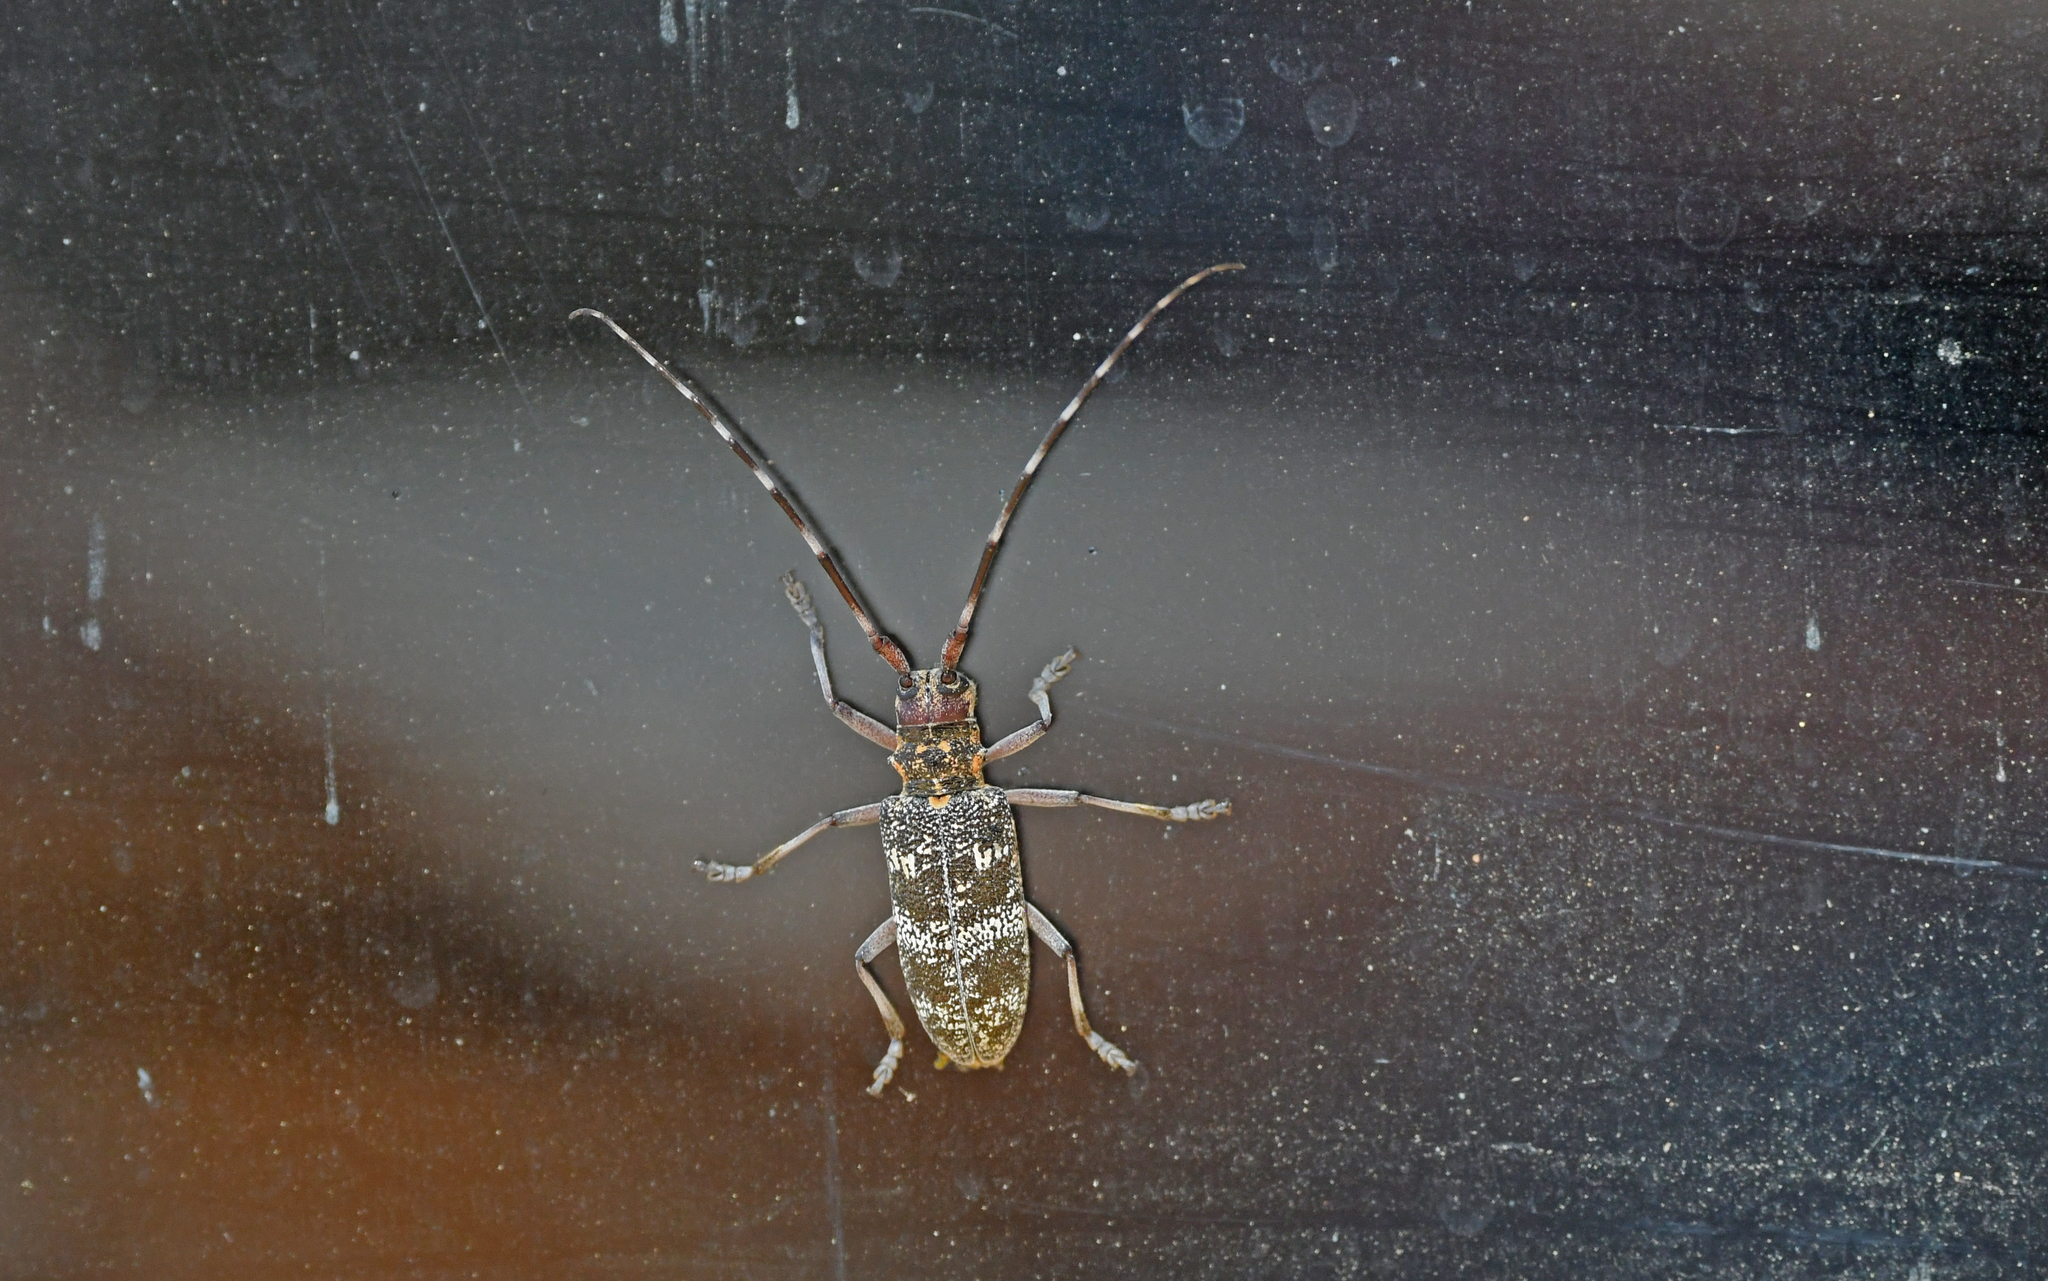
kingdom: Animalia
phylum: Arthropoda
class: Insecta
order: Coleoptera
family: Cerambycidae
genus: Monochamus
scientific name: Monochamus galloprovincialis
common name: Pine sawyer
